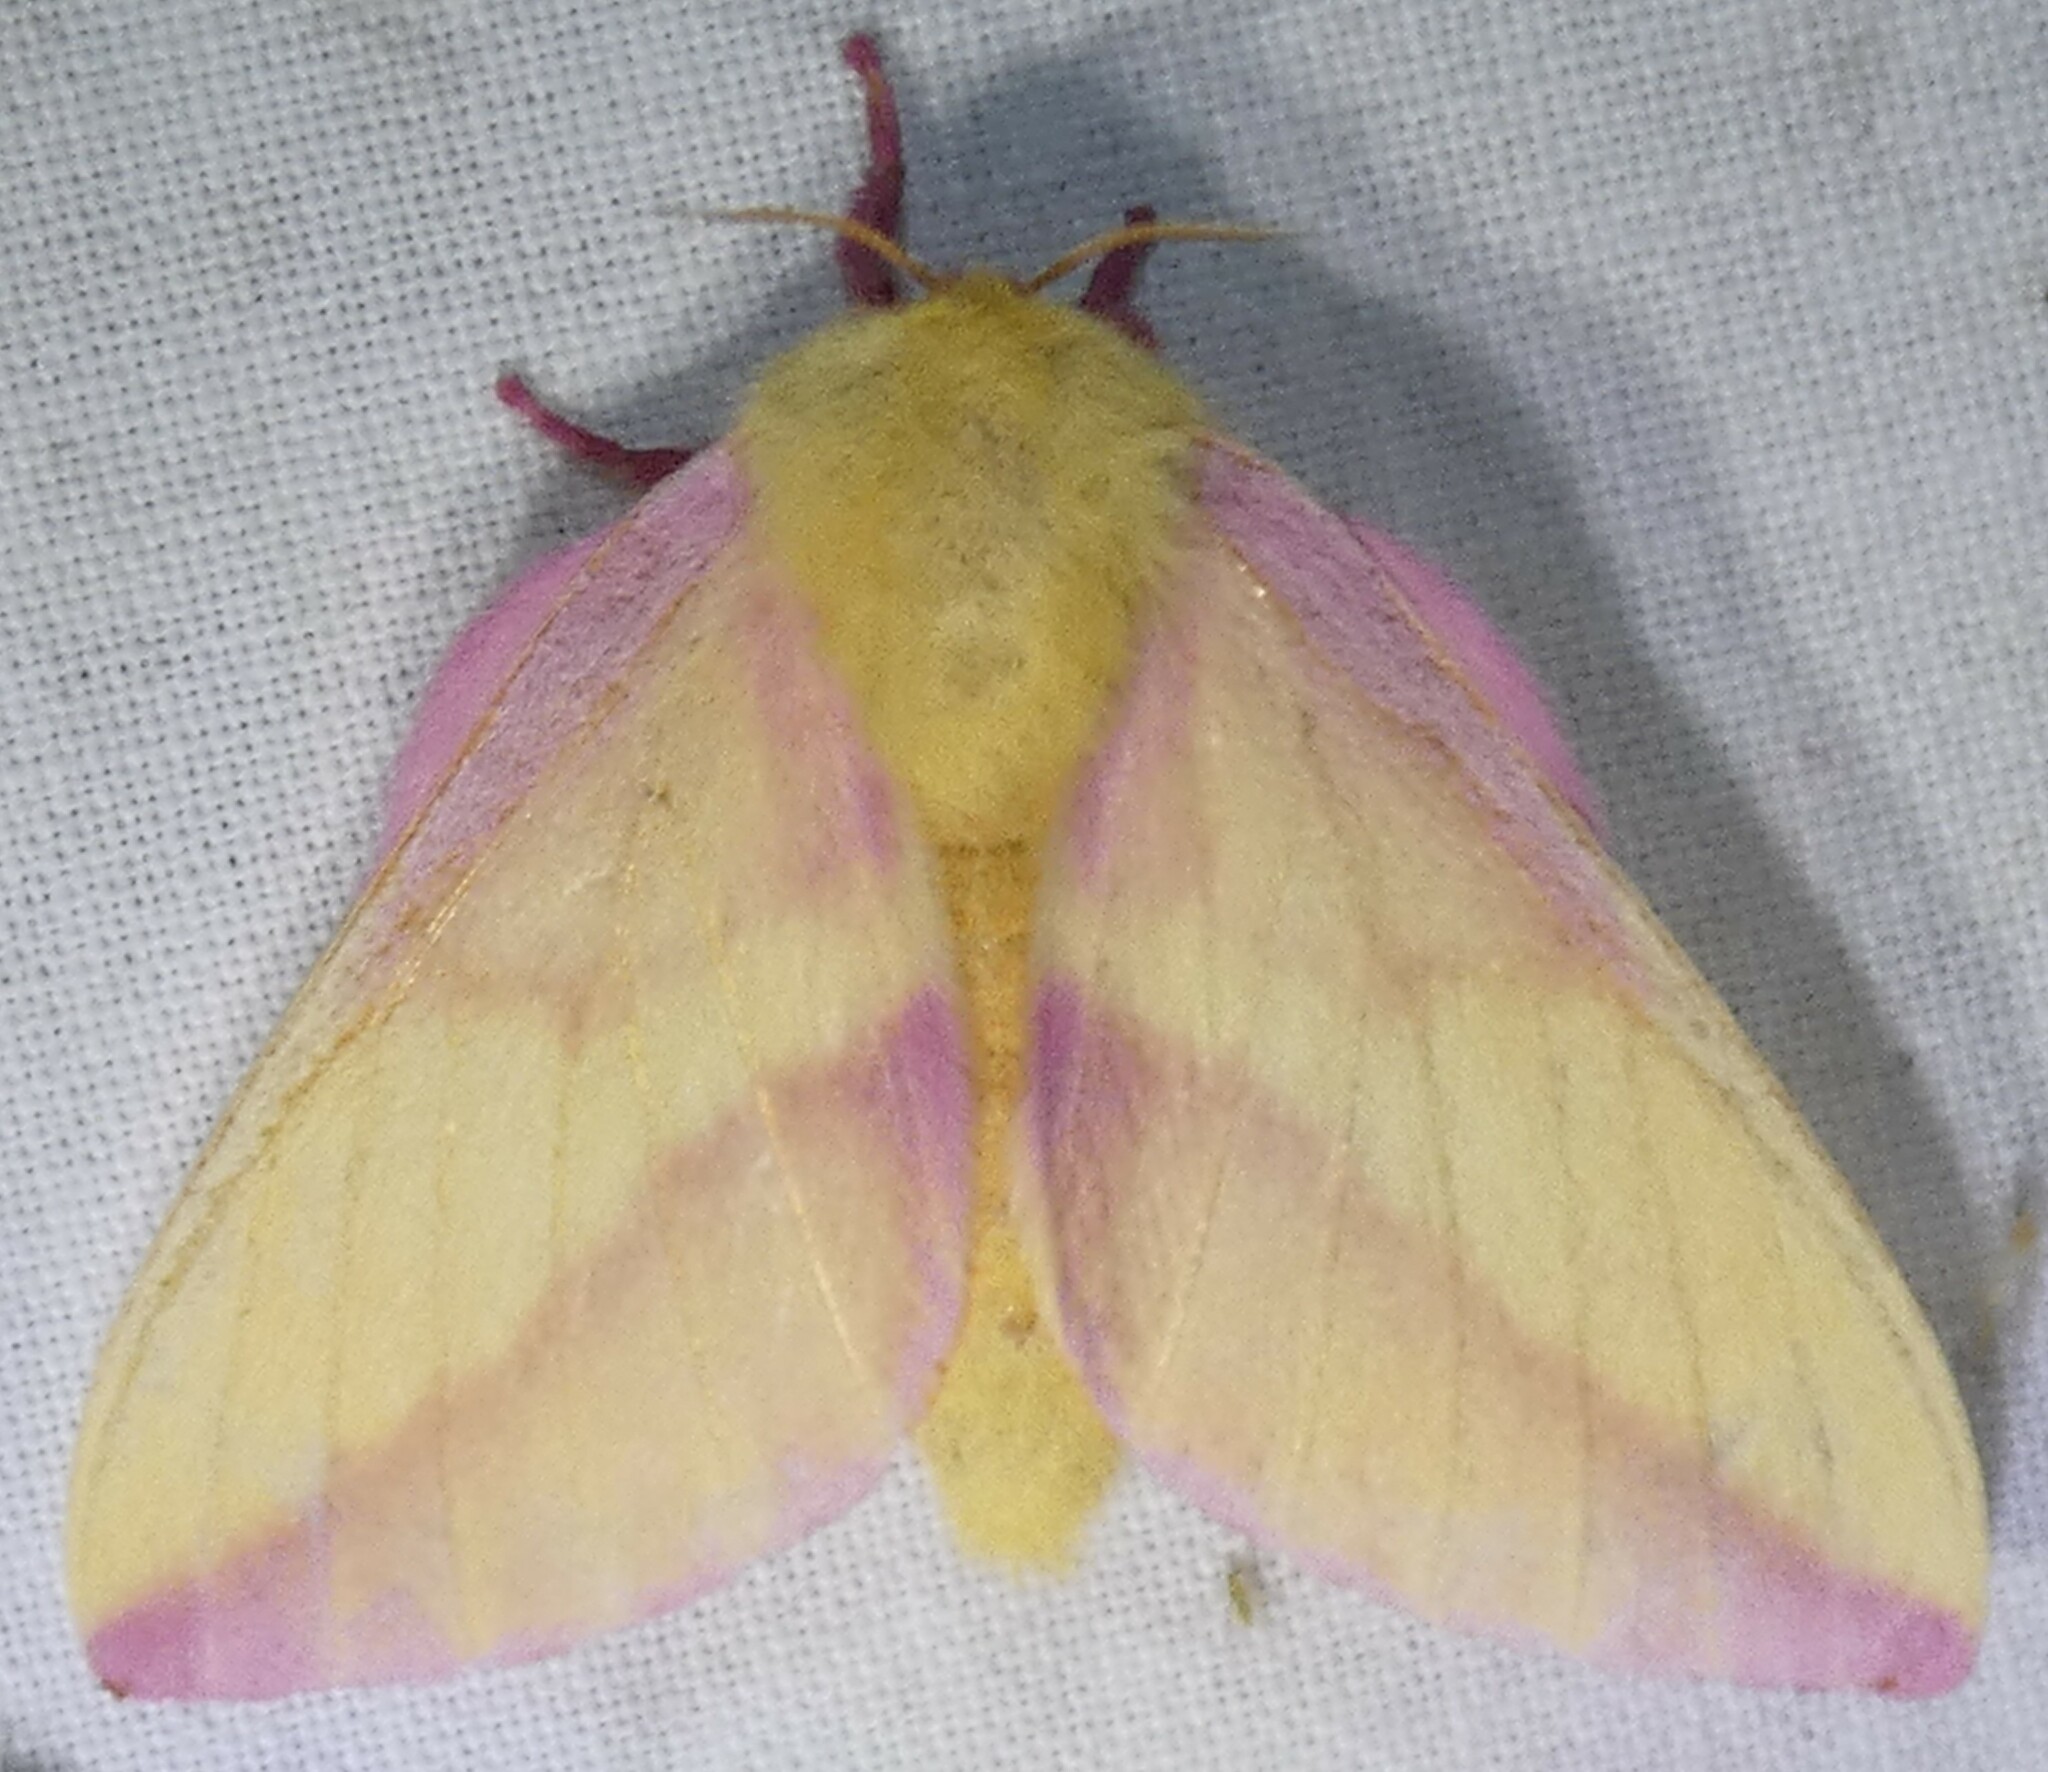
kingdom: Animalia
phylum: Arthropoda
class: Insecta
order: Lepidoptera
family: Saturniidae
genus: Dryocampa
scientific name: Dryocampa rubicunda
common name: Rosy maple moth
